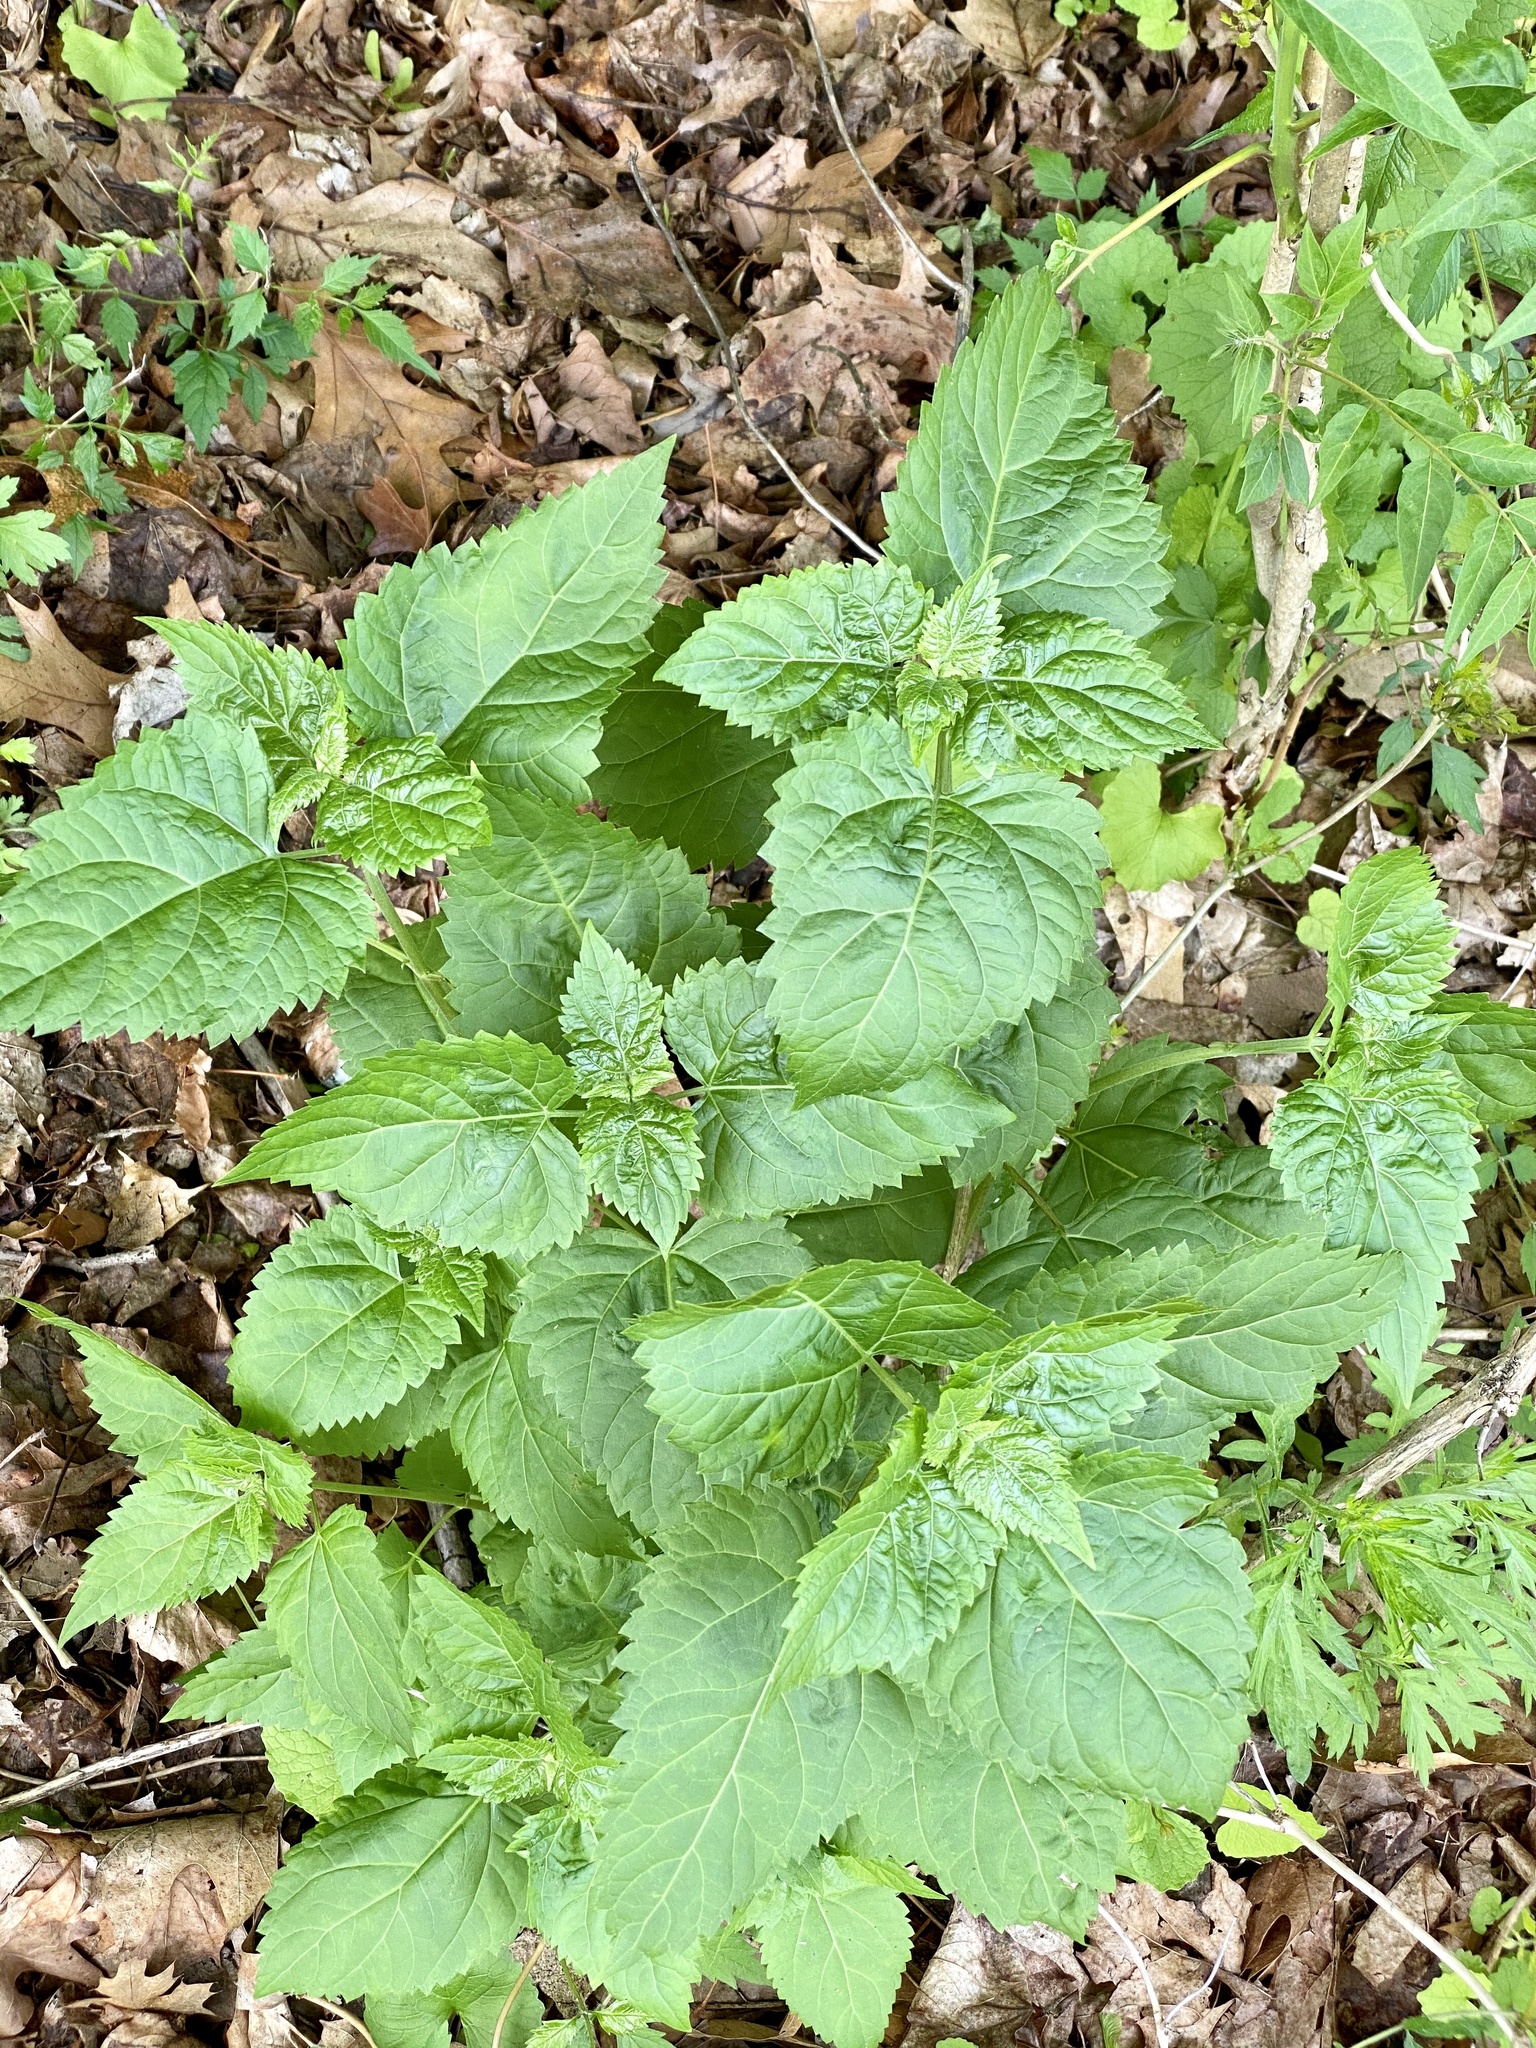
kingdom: Plantae
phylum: Tracheophyta
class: Magnoliopsida
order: Asterales
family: Asteraceae
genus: Ageratina
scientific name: Ageratina altissima
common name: White snakeroot
